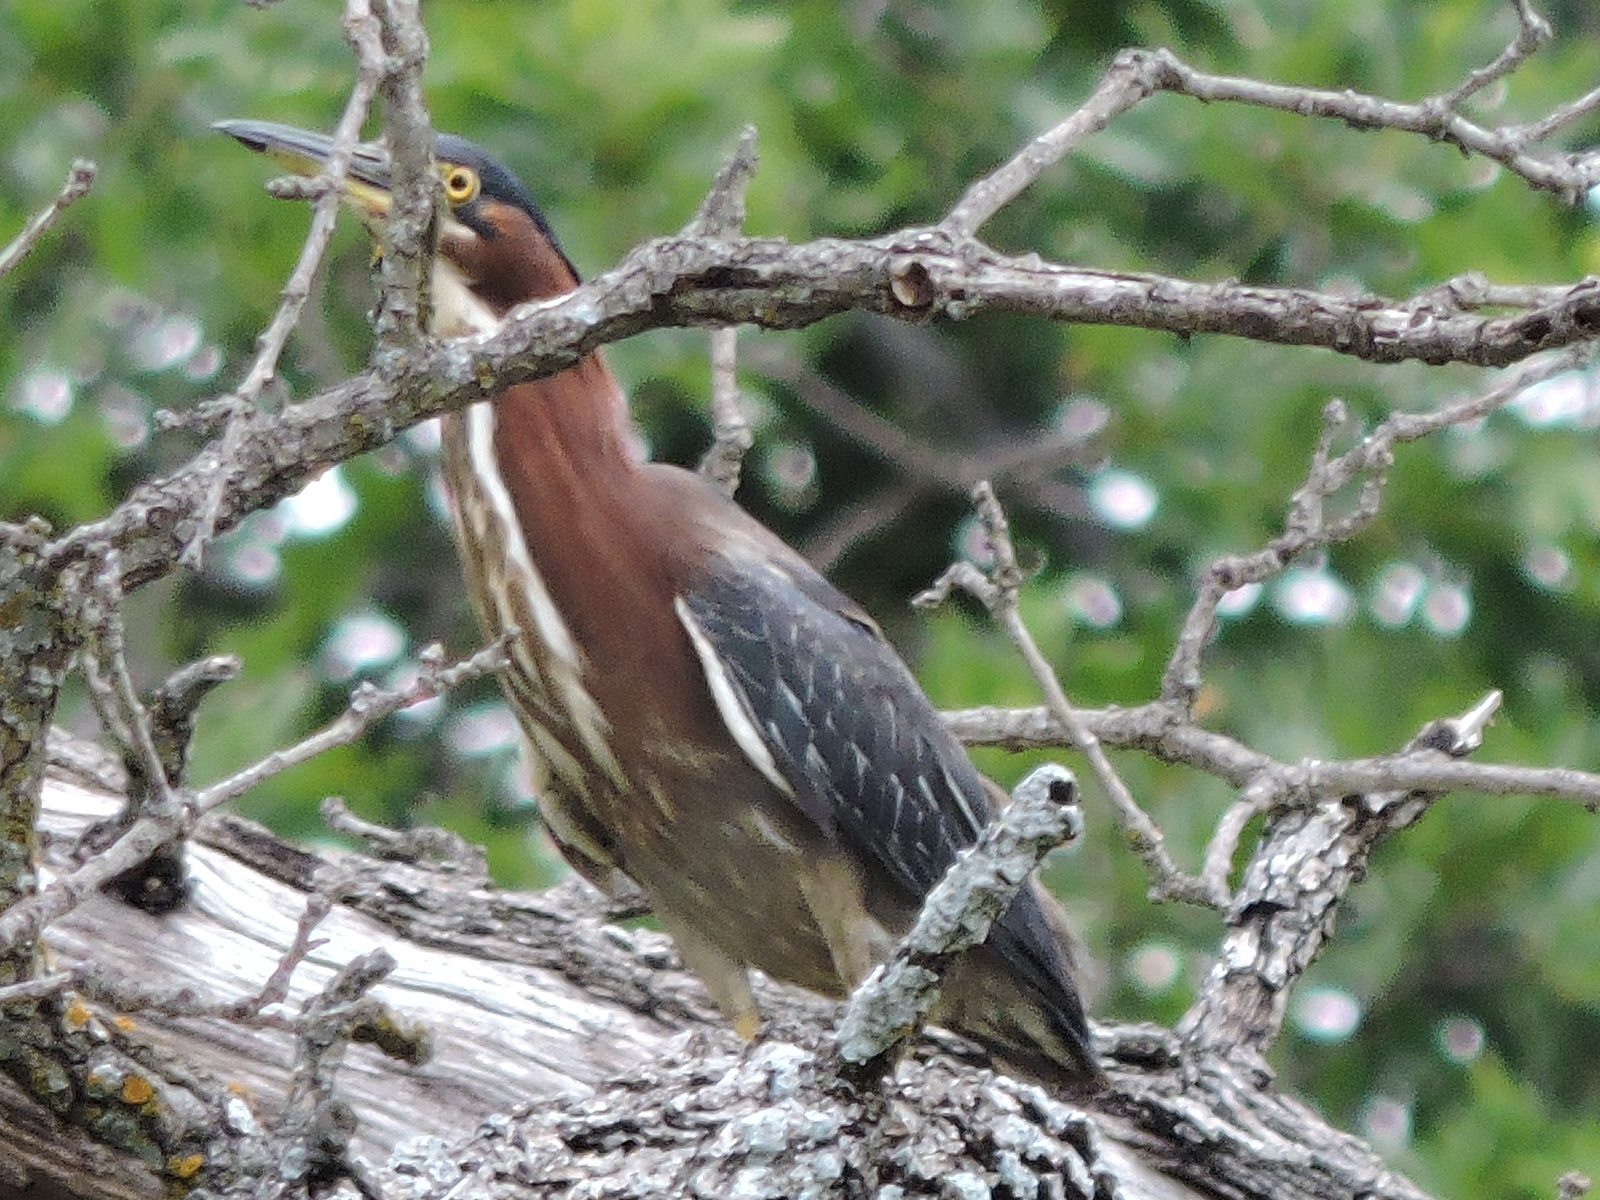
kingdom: Animalia
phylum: Chordata
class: Aves
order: Pelecaniformes
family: Ardeidae
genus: Butorides
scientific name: Butorides virescens
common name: Green heron
